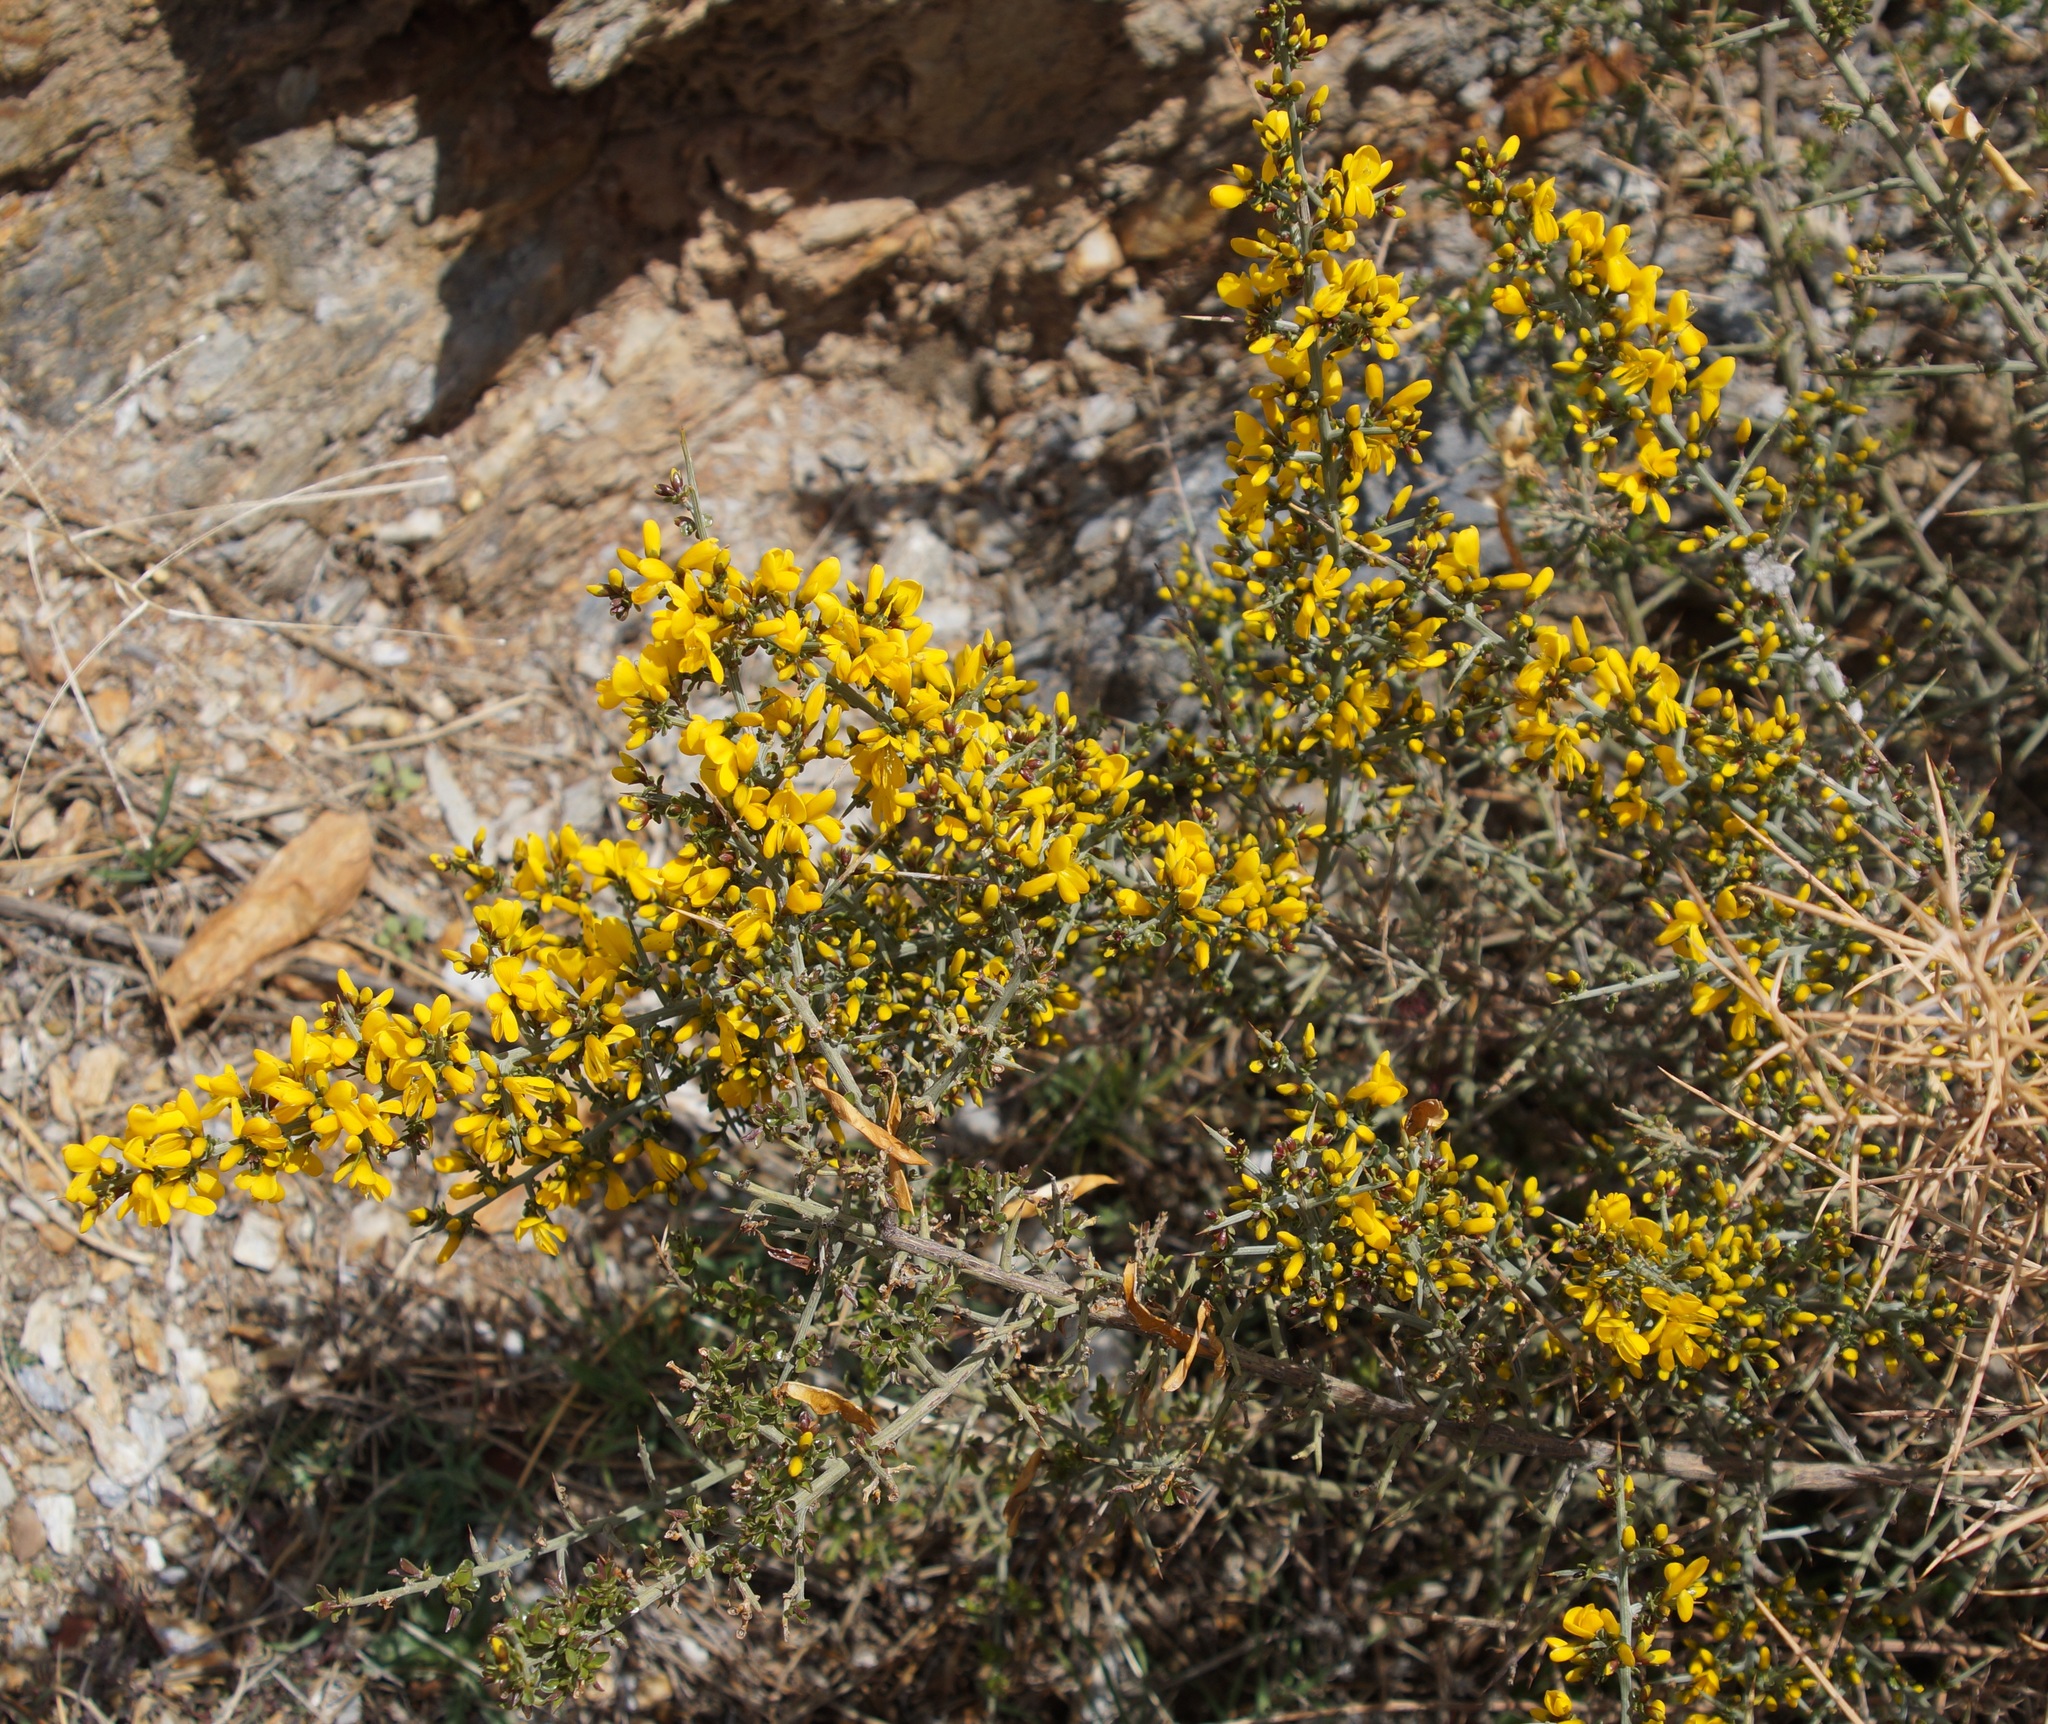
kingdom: Plantae
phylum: Tracheophyta
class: Magnoliopsida
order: Fabales
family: Fabaceae
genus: Genista
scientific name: Genista scorpius
